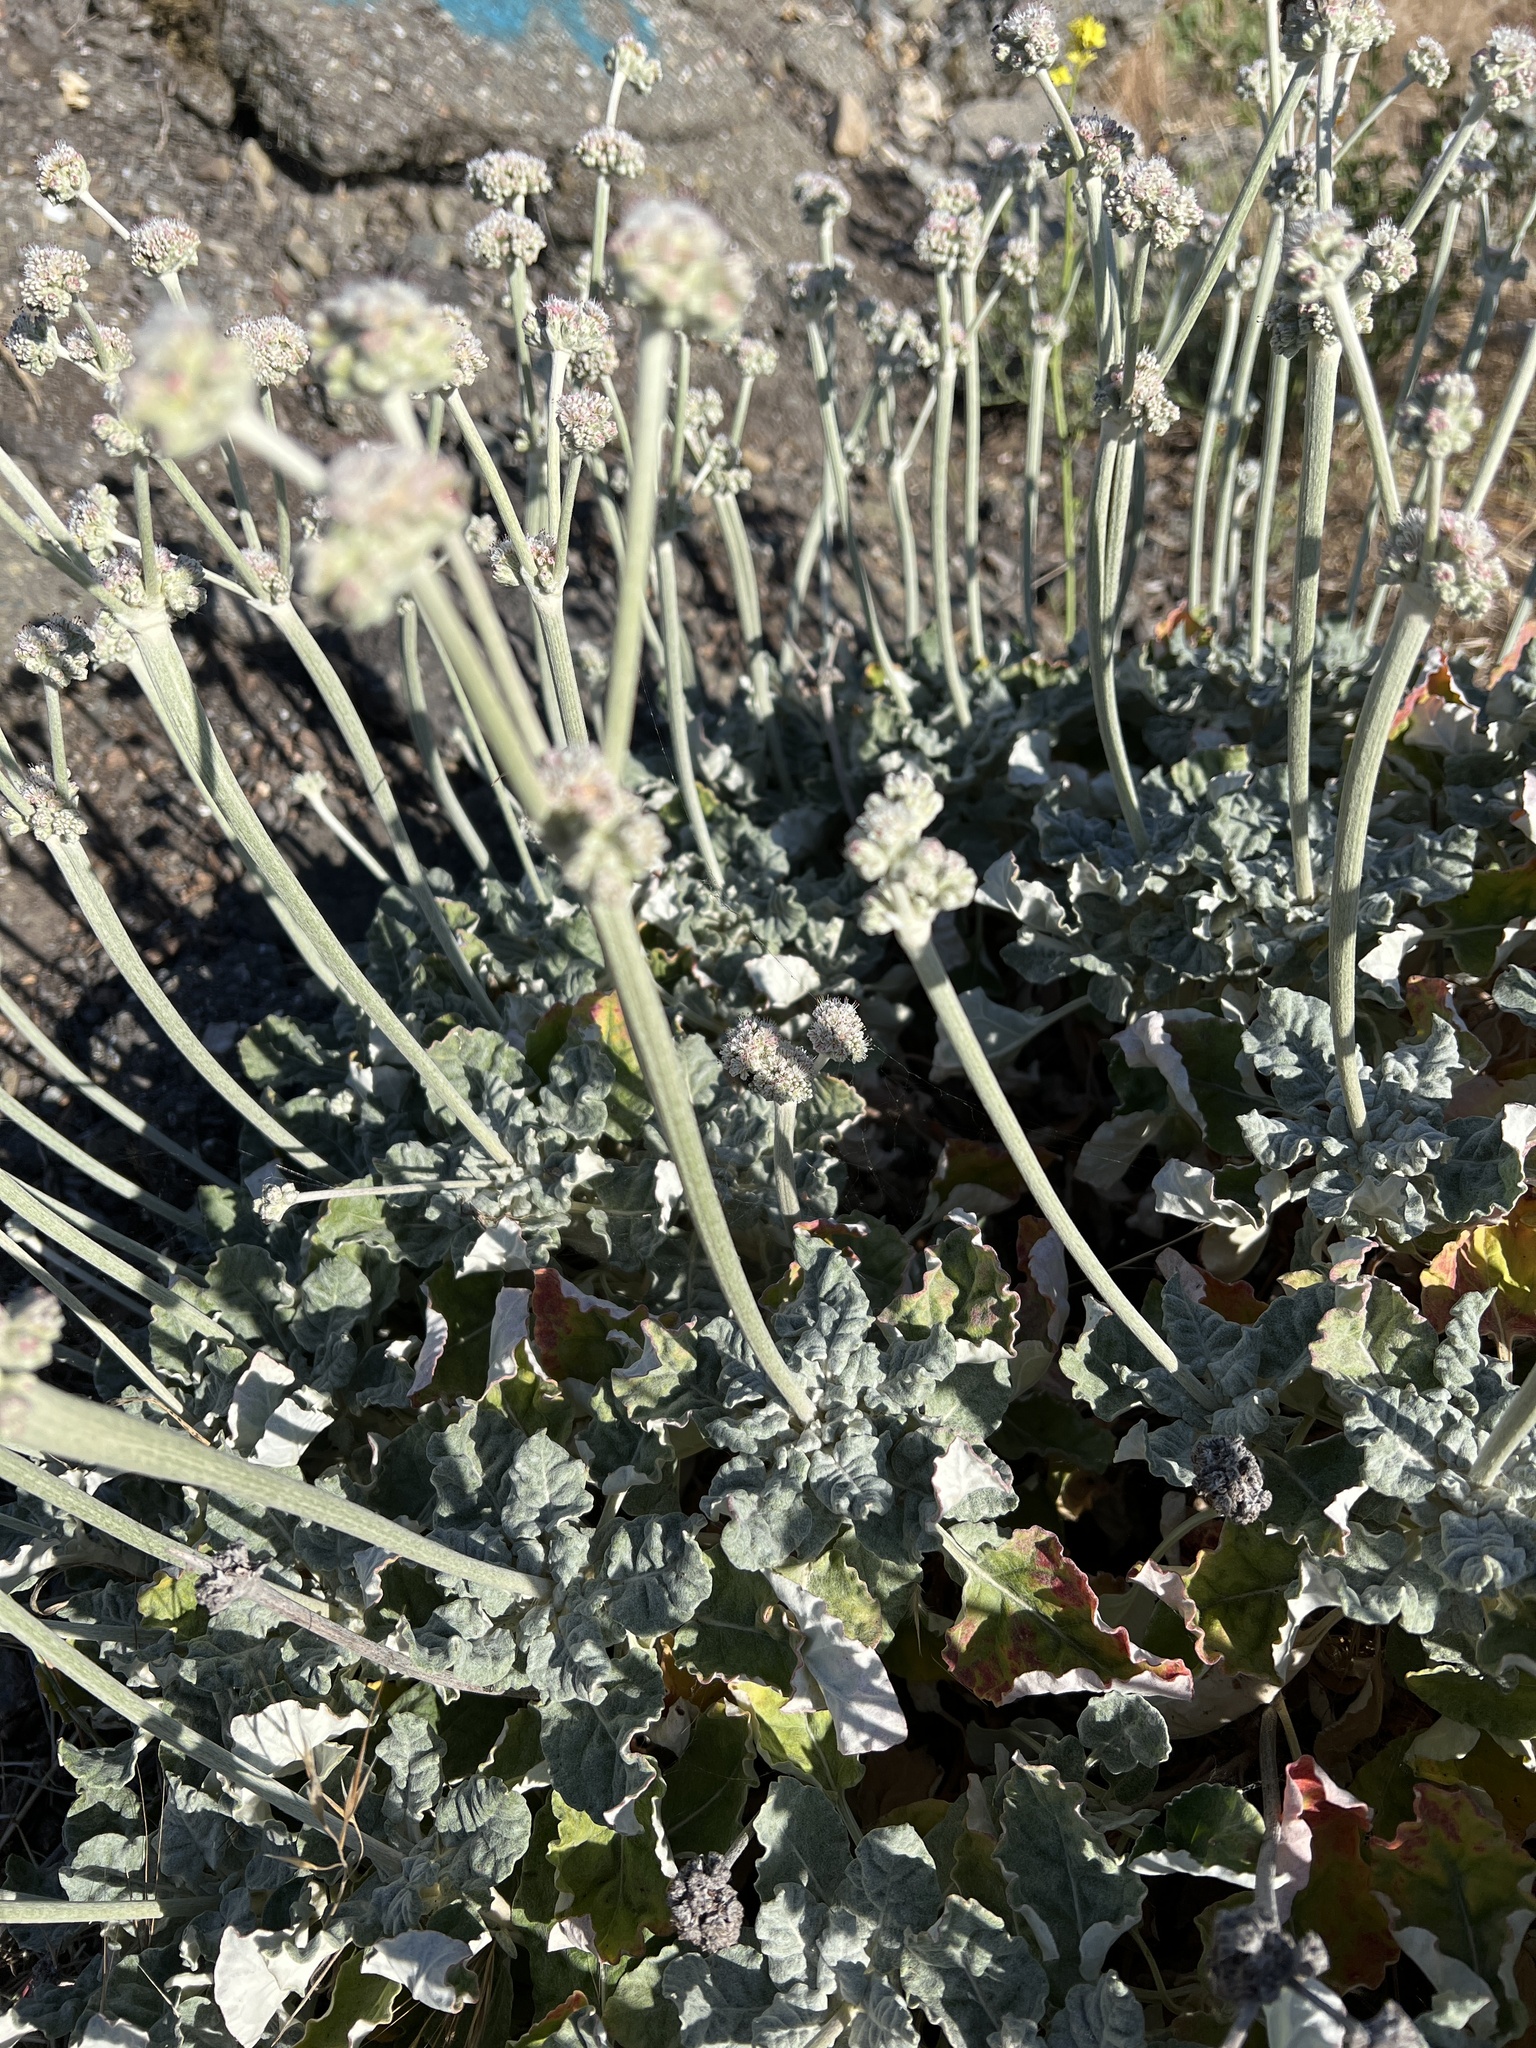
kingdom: Plantae
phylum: Tracheophyta
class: Magnoliopsida
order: Caryophyllales
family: Polygonaceae
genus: Eriogonum
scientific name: Eriogonum latifolium
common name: Seaside wild buckwheat
